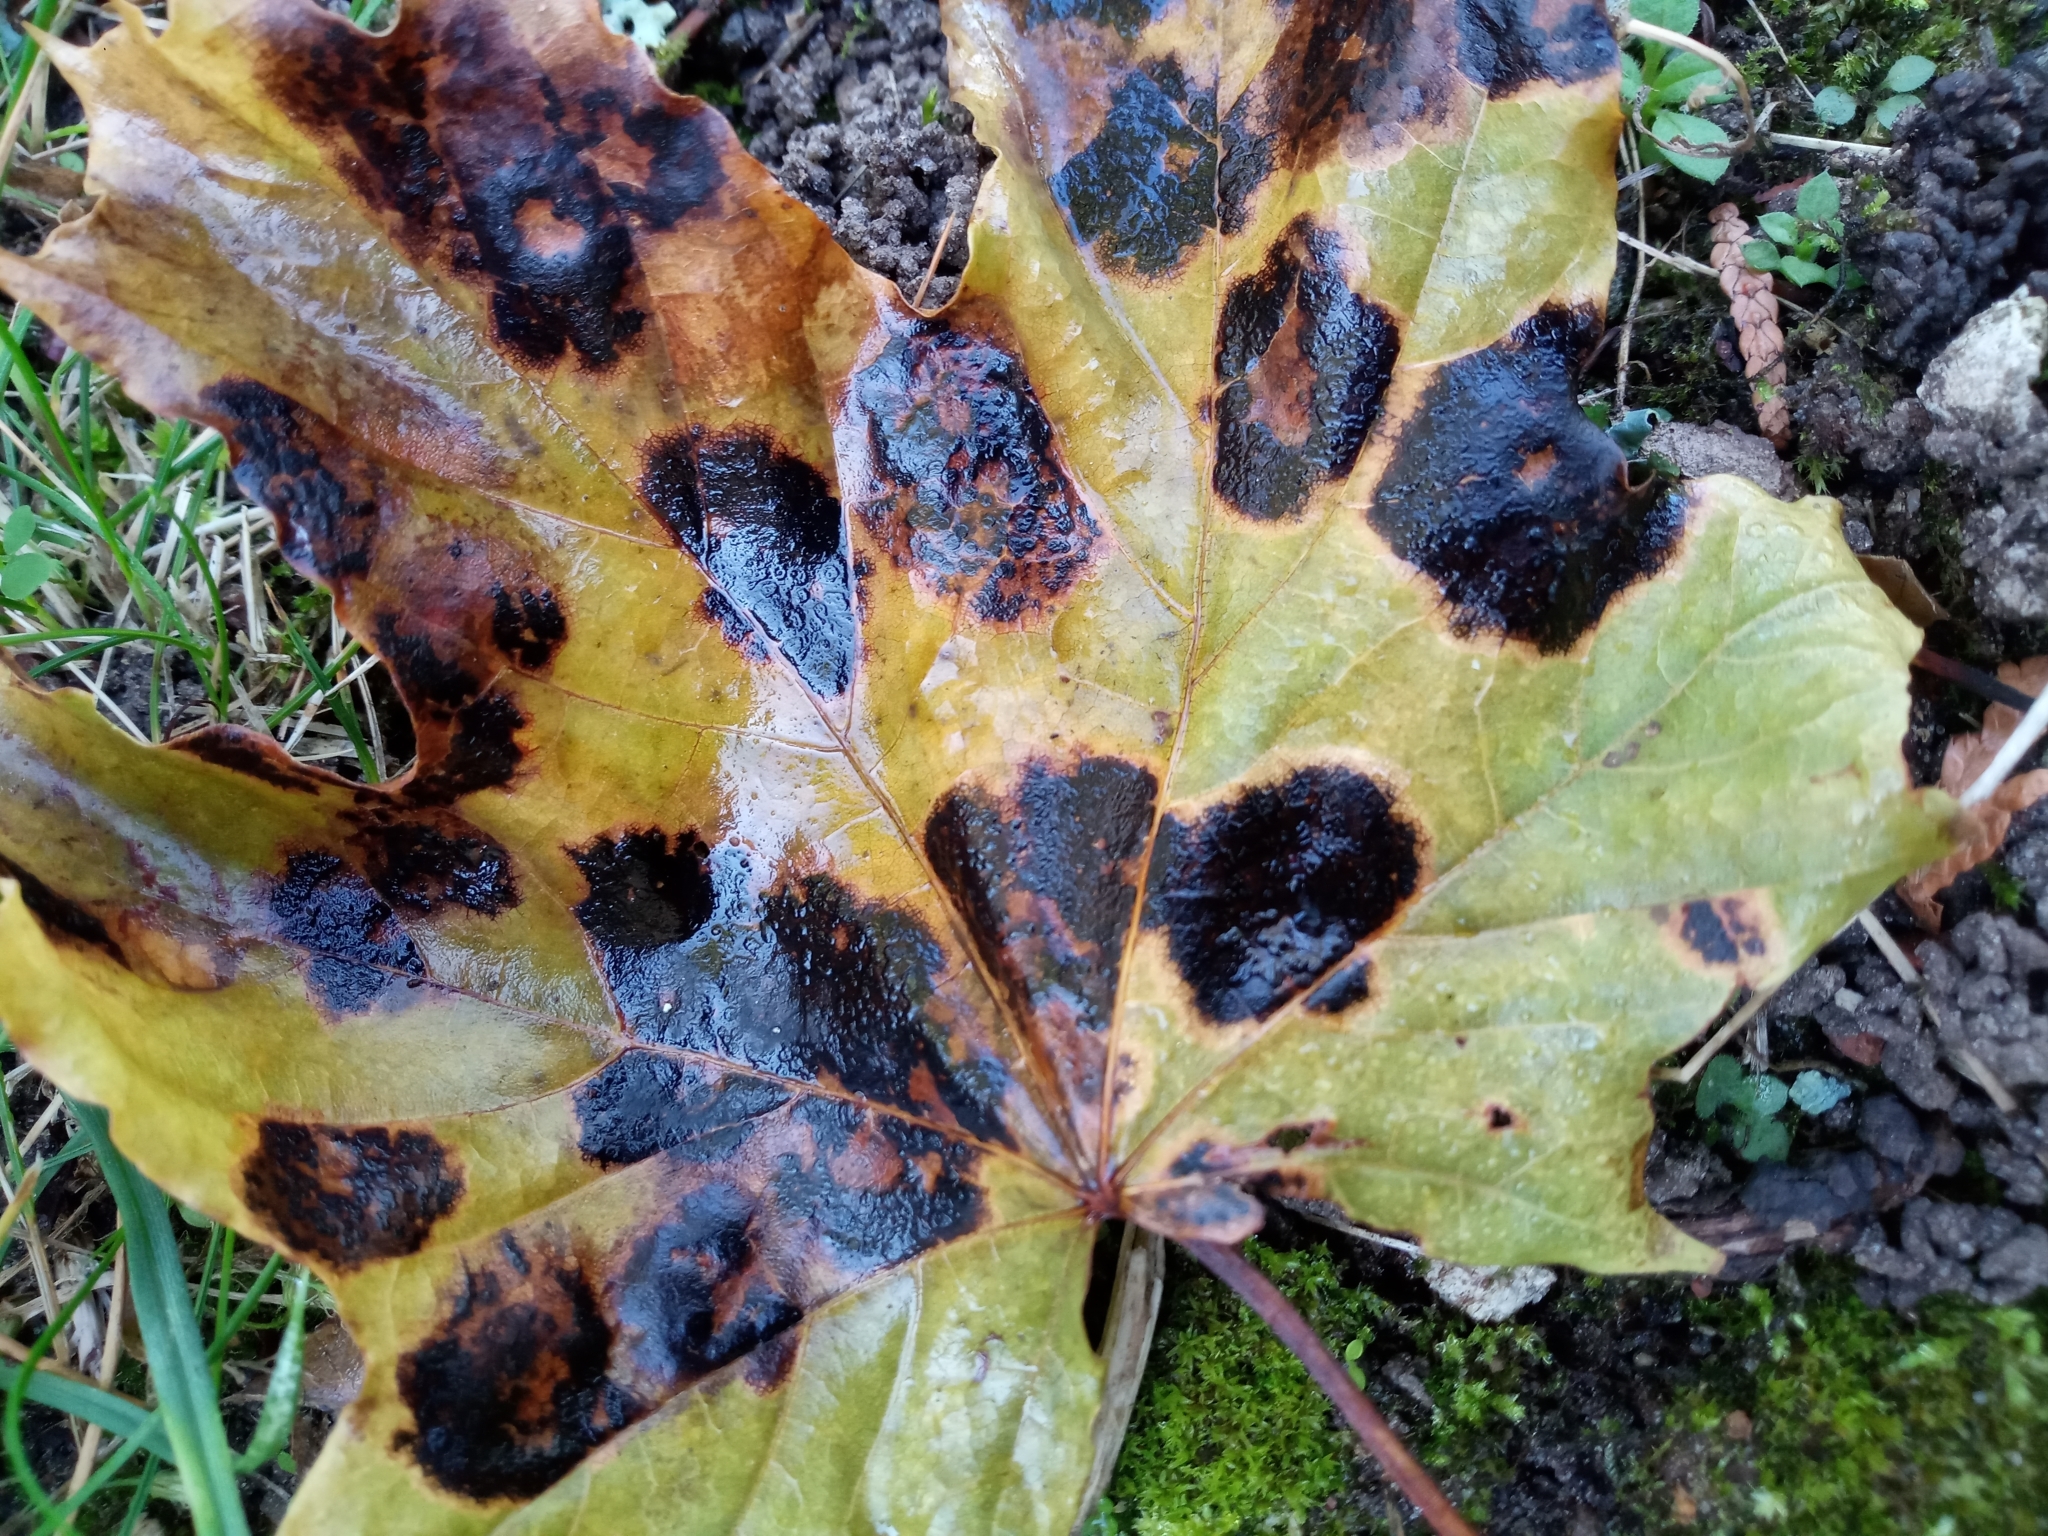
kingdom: Fungi
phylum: Ascomycota
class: Leotiomycetes
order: Rhytismatales
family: Rhytismataceae
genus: Rhytisma
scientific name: Rhytisma acerinum
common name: European tar spot
